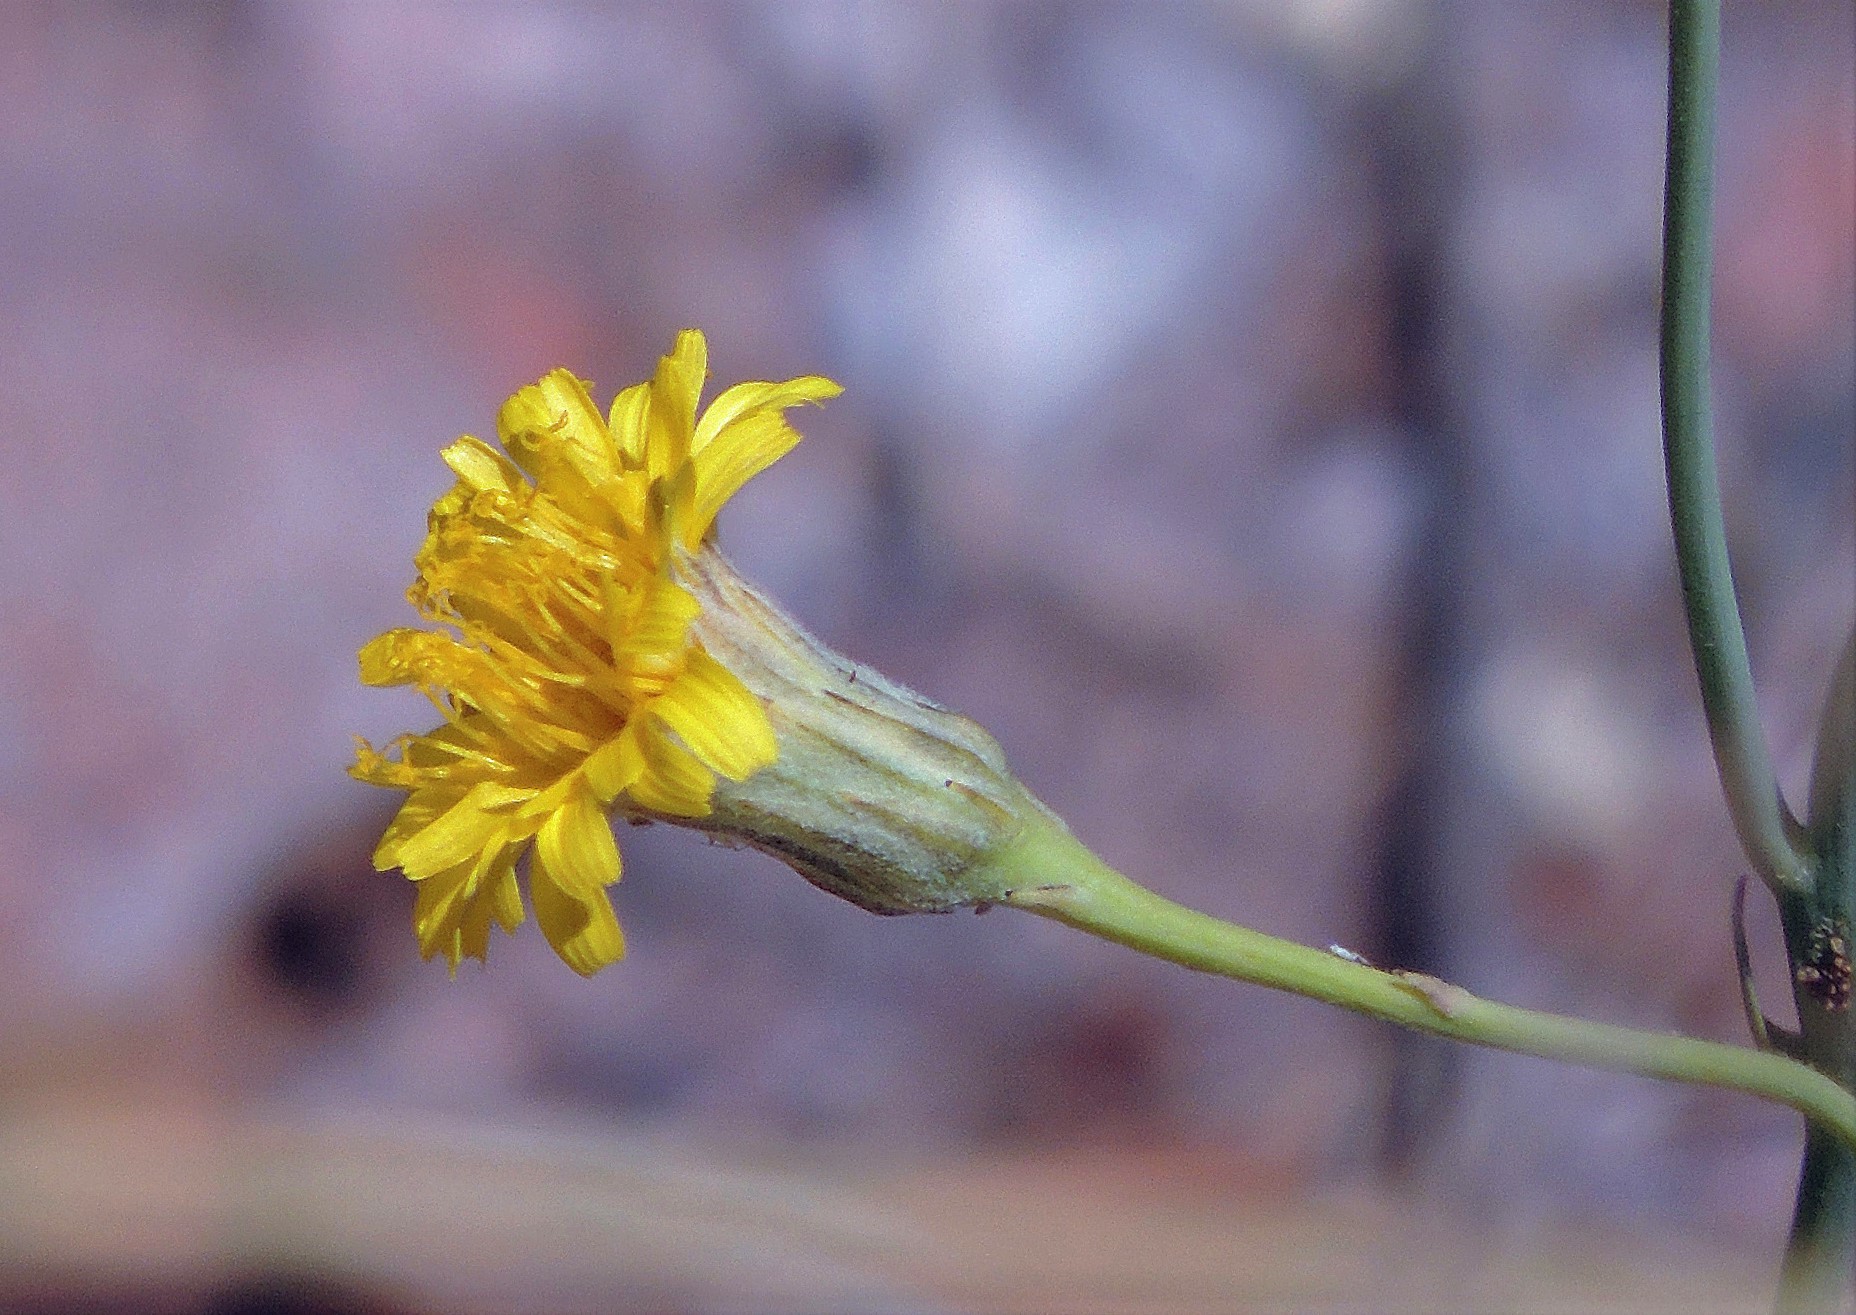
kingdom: Plantae
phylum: Tracheophyta
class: Magnoliopsida
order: Asterales
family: Asteraceae
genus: Hypochaeris
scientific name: Hypochaeris chondrilloides
